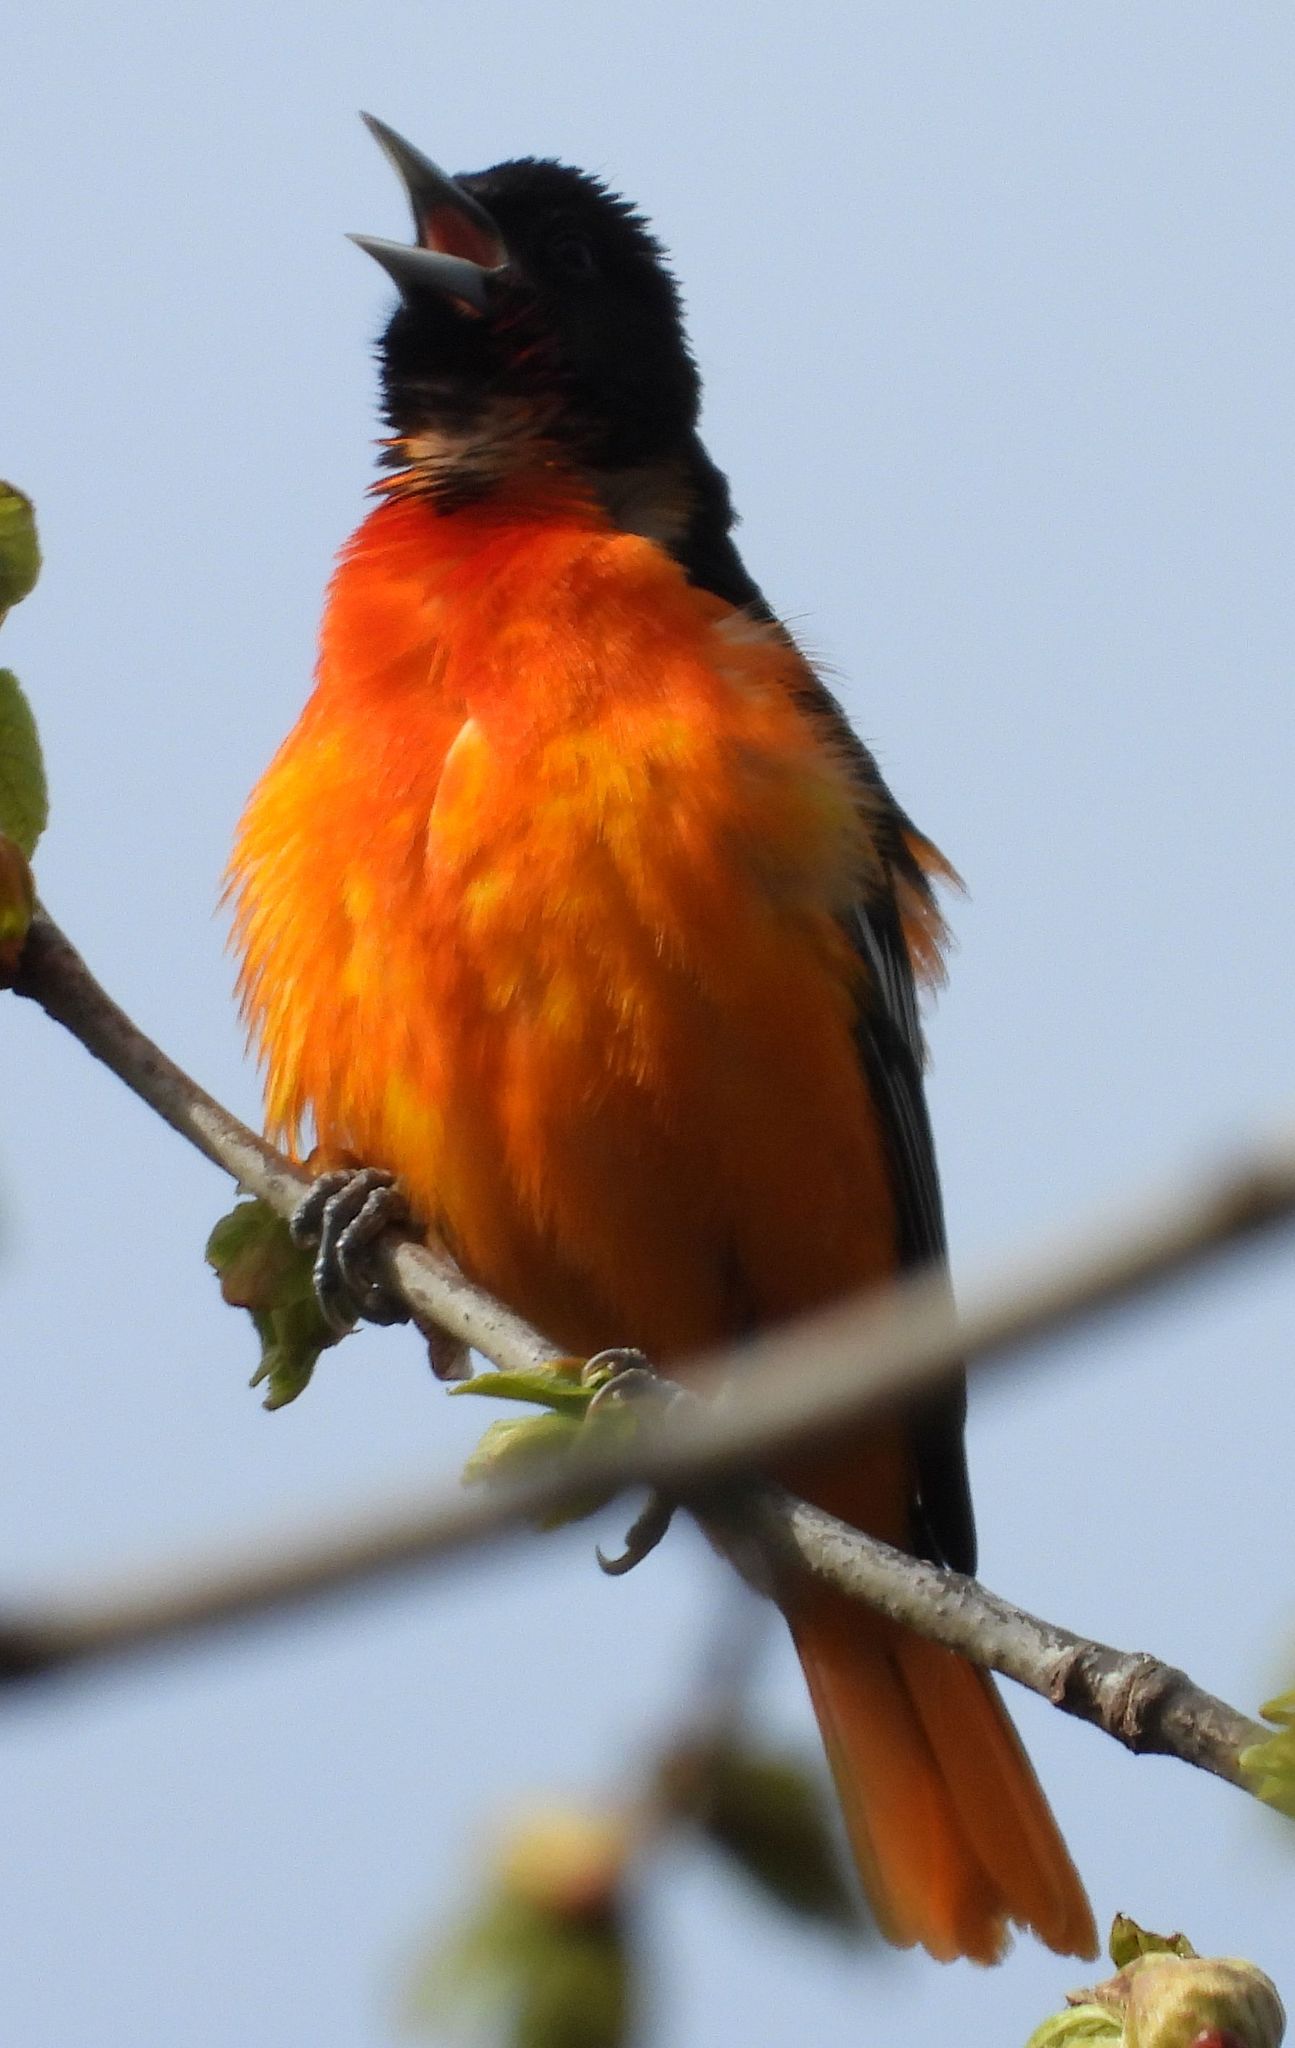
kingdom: Animalia
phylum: Chordata
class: Aves
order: Passeriformes
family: Icteridae
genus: Icterus
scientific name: Icterus galbula
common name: Baltimore oriole
